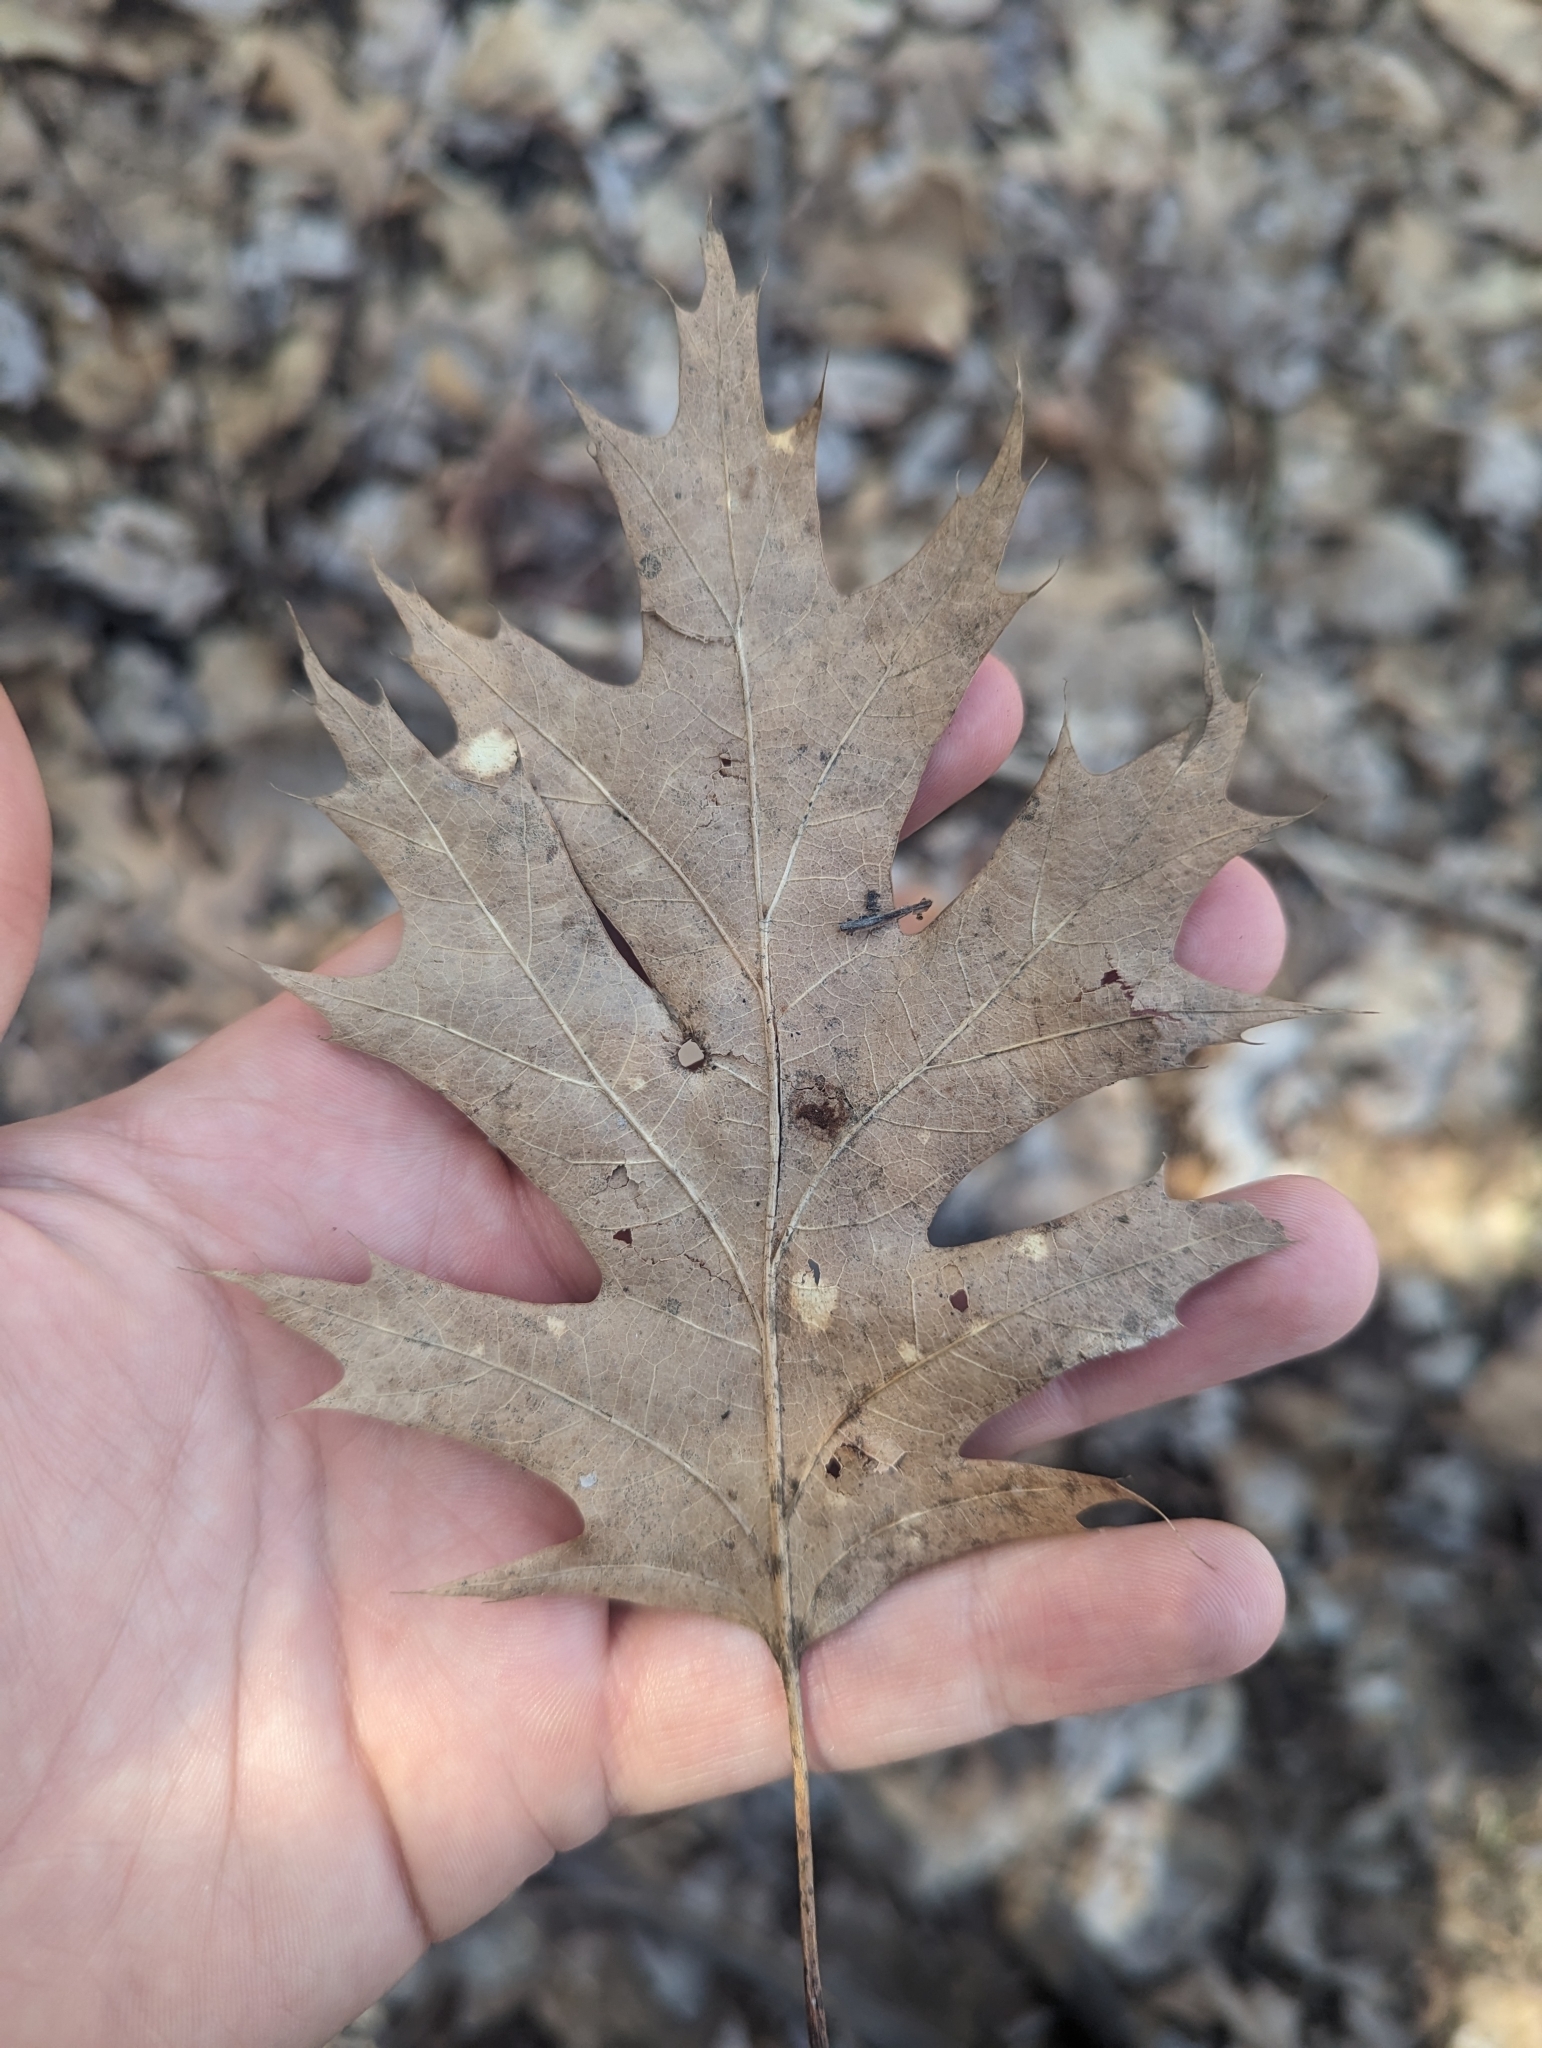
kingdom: Plantae
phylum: Tracheophyta
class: Magnoliopsida
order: Fagales
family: Fagaceae
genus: Quercus
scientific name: Quercus rubra
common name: Red oak
